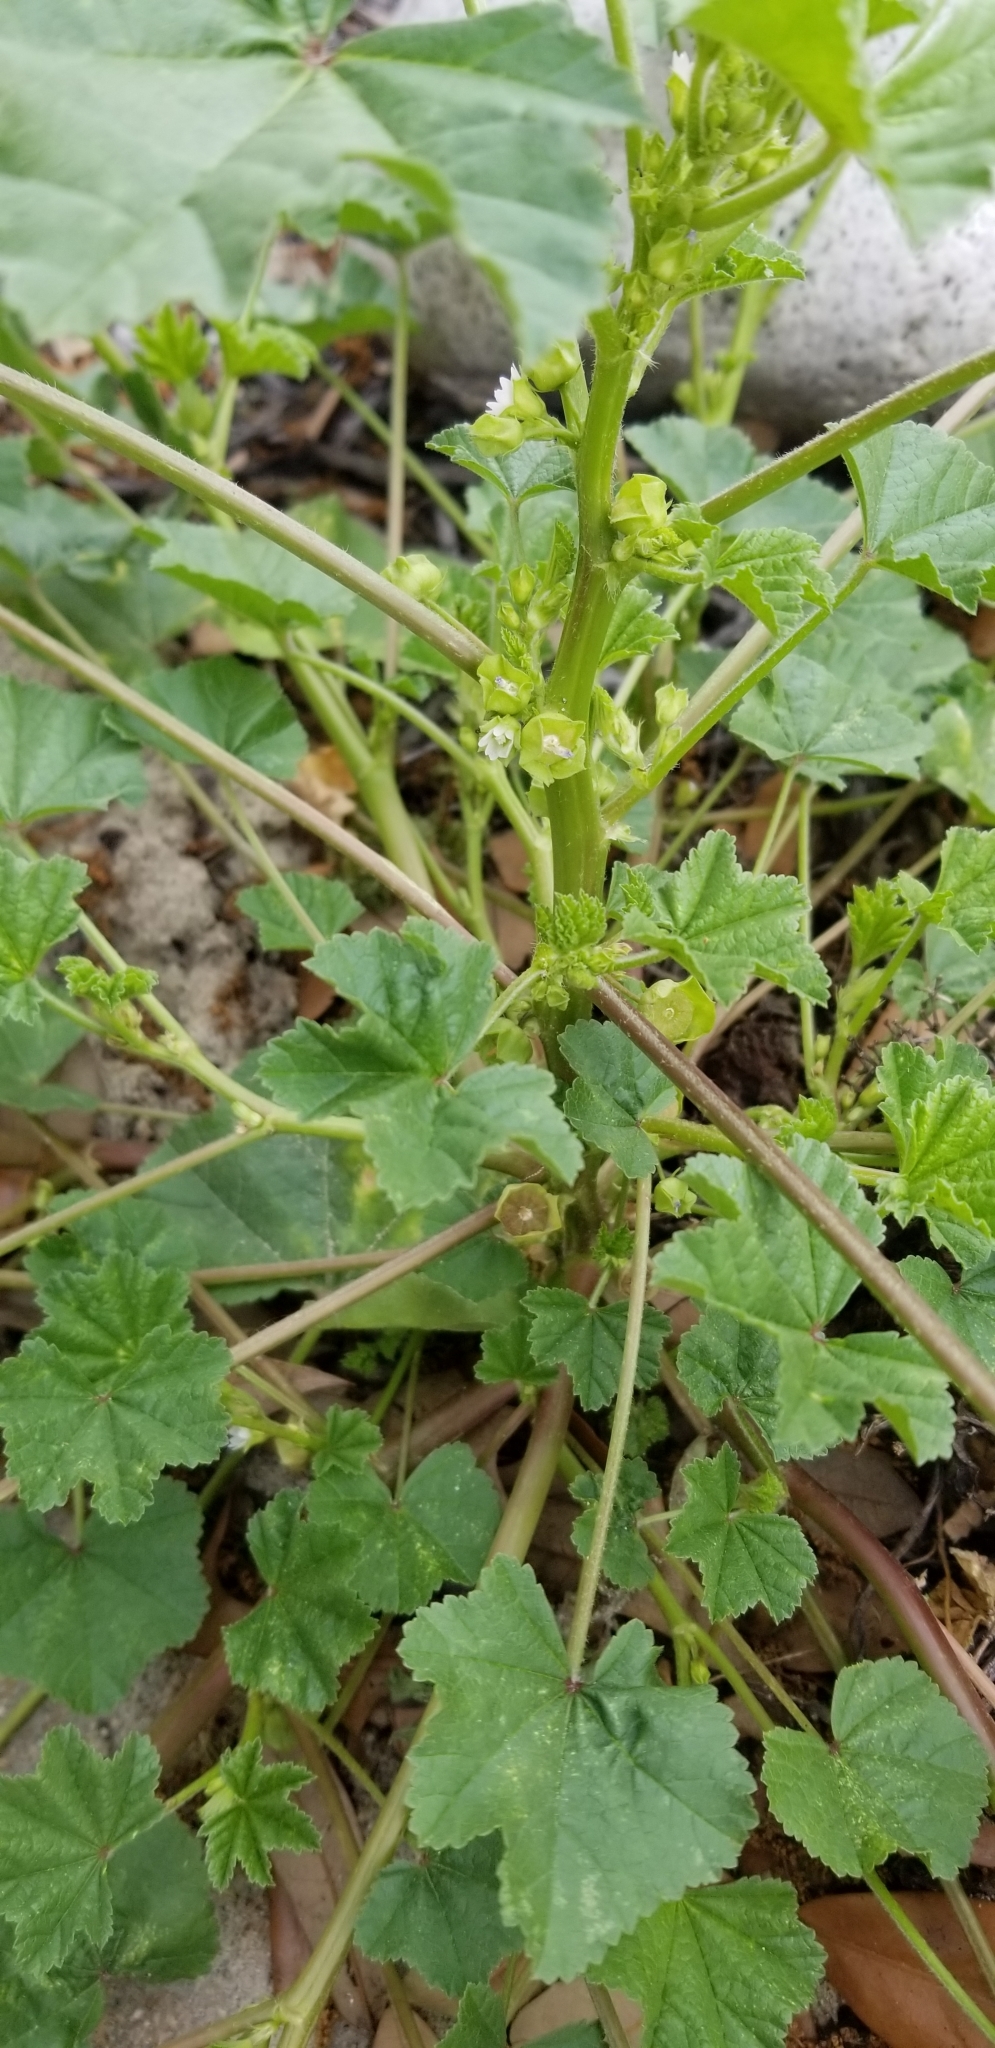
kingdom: Plantae
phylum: Tracheophyta
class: Magnoliopsida
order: Malvales
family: Malvaceae
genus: Malva
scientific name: Malva neglecta
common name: Common mallow
